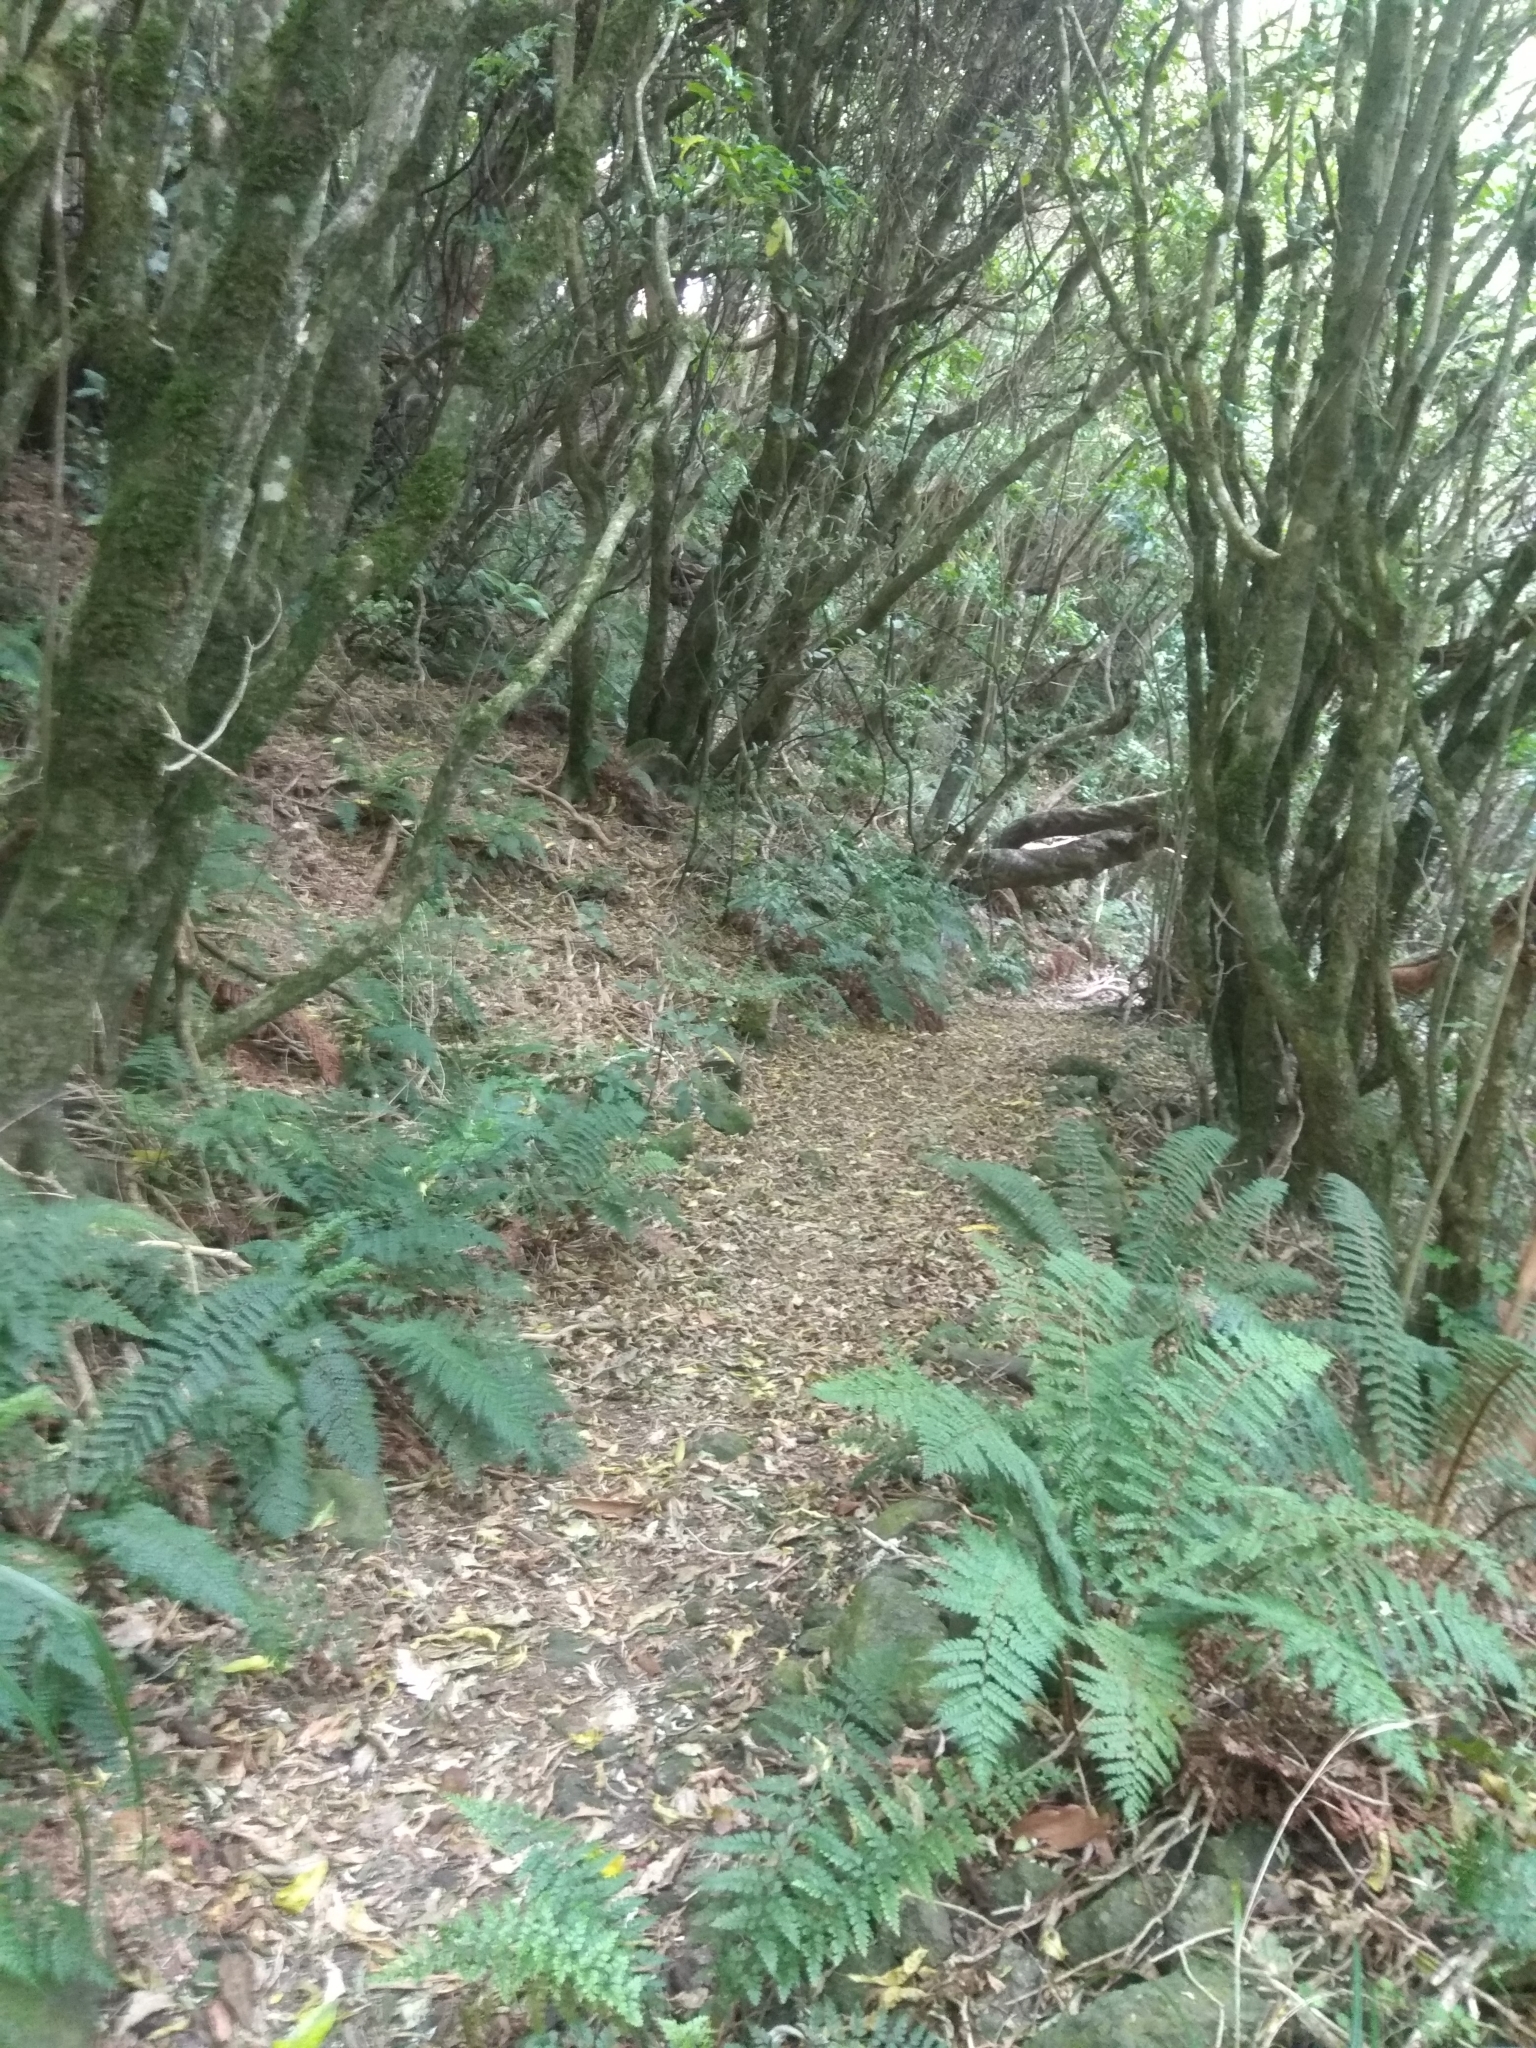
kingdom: Plantae
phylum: Tracheophyta
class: Polypodiopsida
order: Polypodiales
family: Dryopteridaceae
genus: Polystichum
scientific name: Polystichum vestitum
